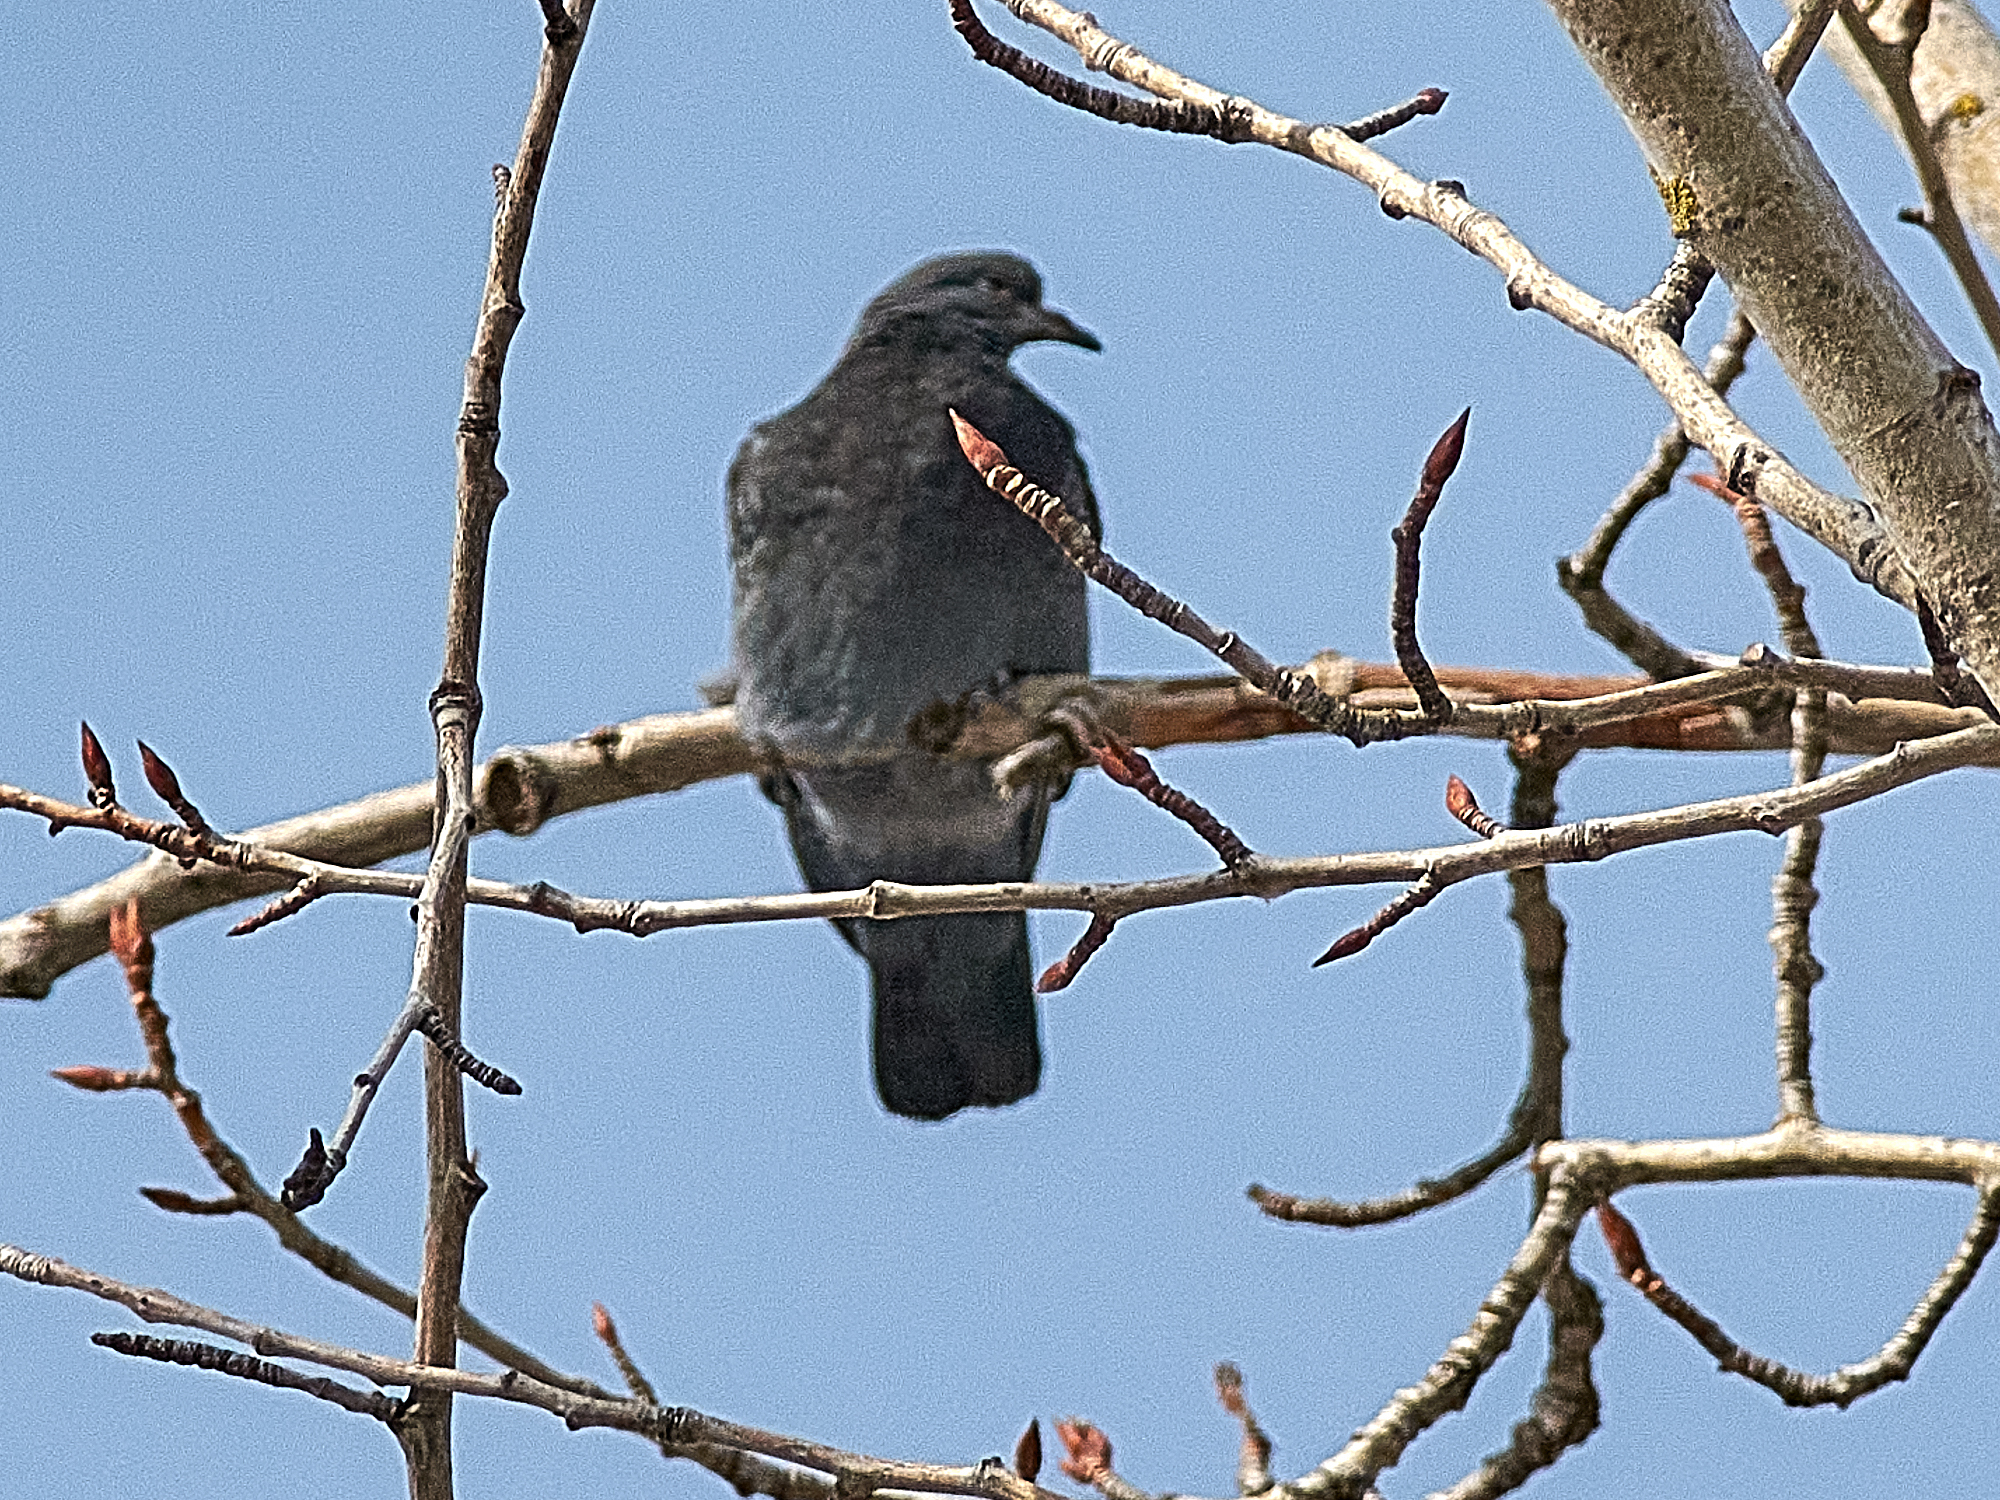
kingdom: Animalia
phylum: Chordata
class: Aves
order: Columbiformes
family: Columbidae
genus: Columba
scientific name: Columba livia
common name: Rock pigeon
